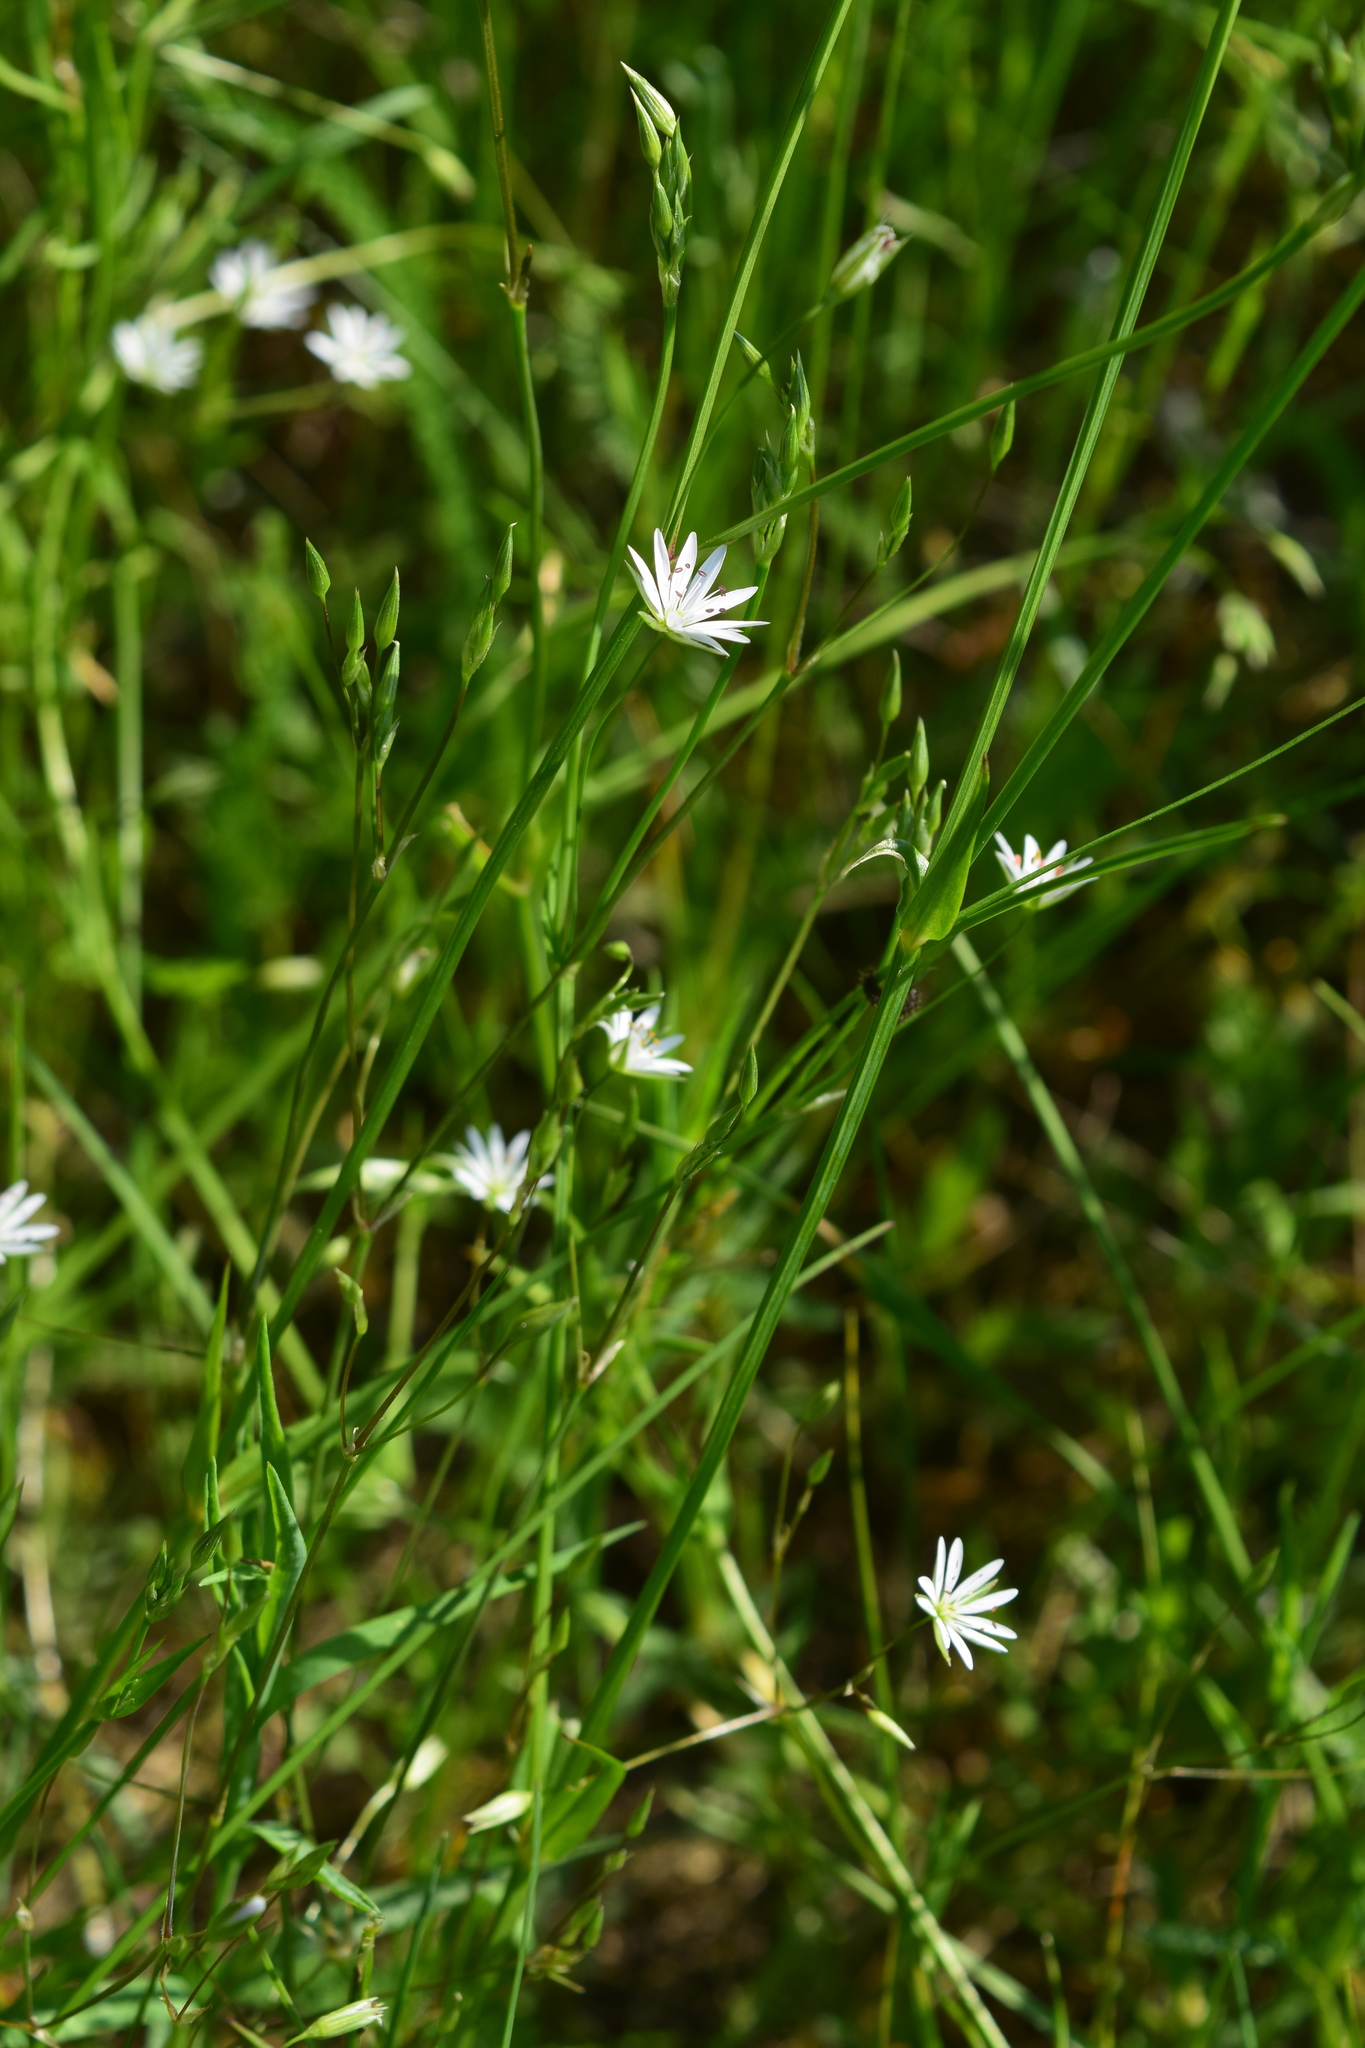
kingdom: Plantae
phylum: Tracheophyta
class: Magnoliopsida
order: Caryophyllales
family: Caryophyllaceae
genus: Stellaria
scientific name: Stellaria graminea
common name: Grass-like starwort
